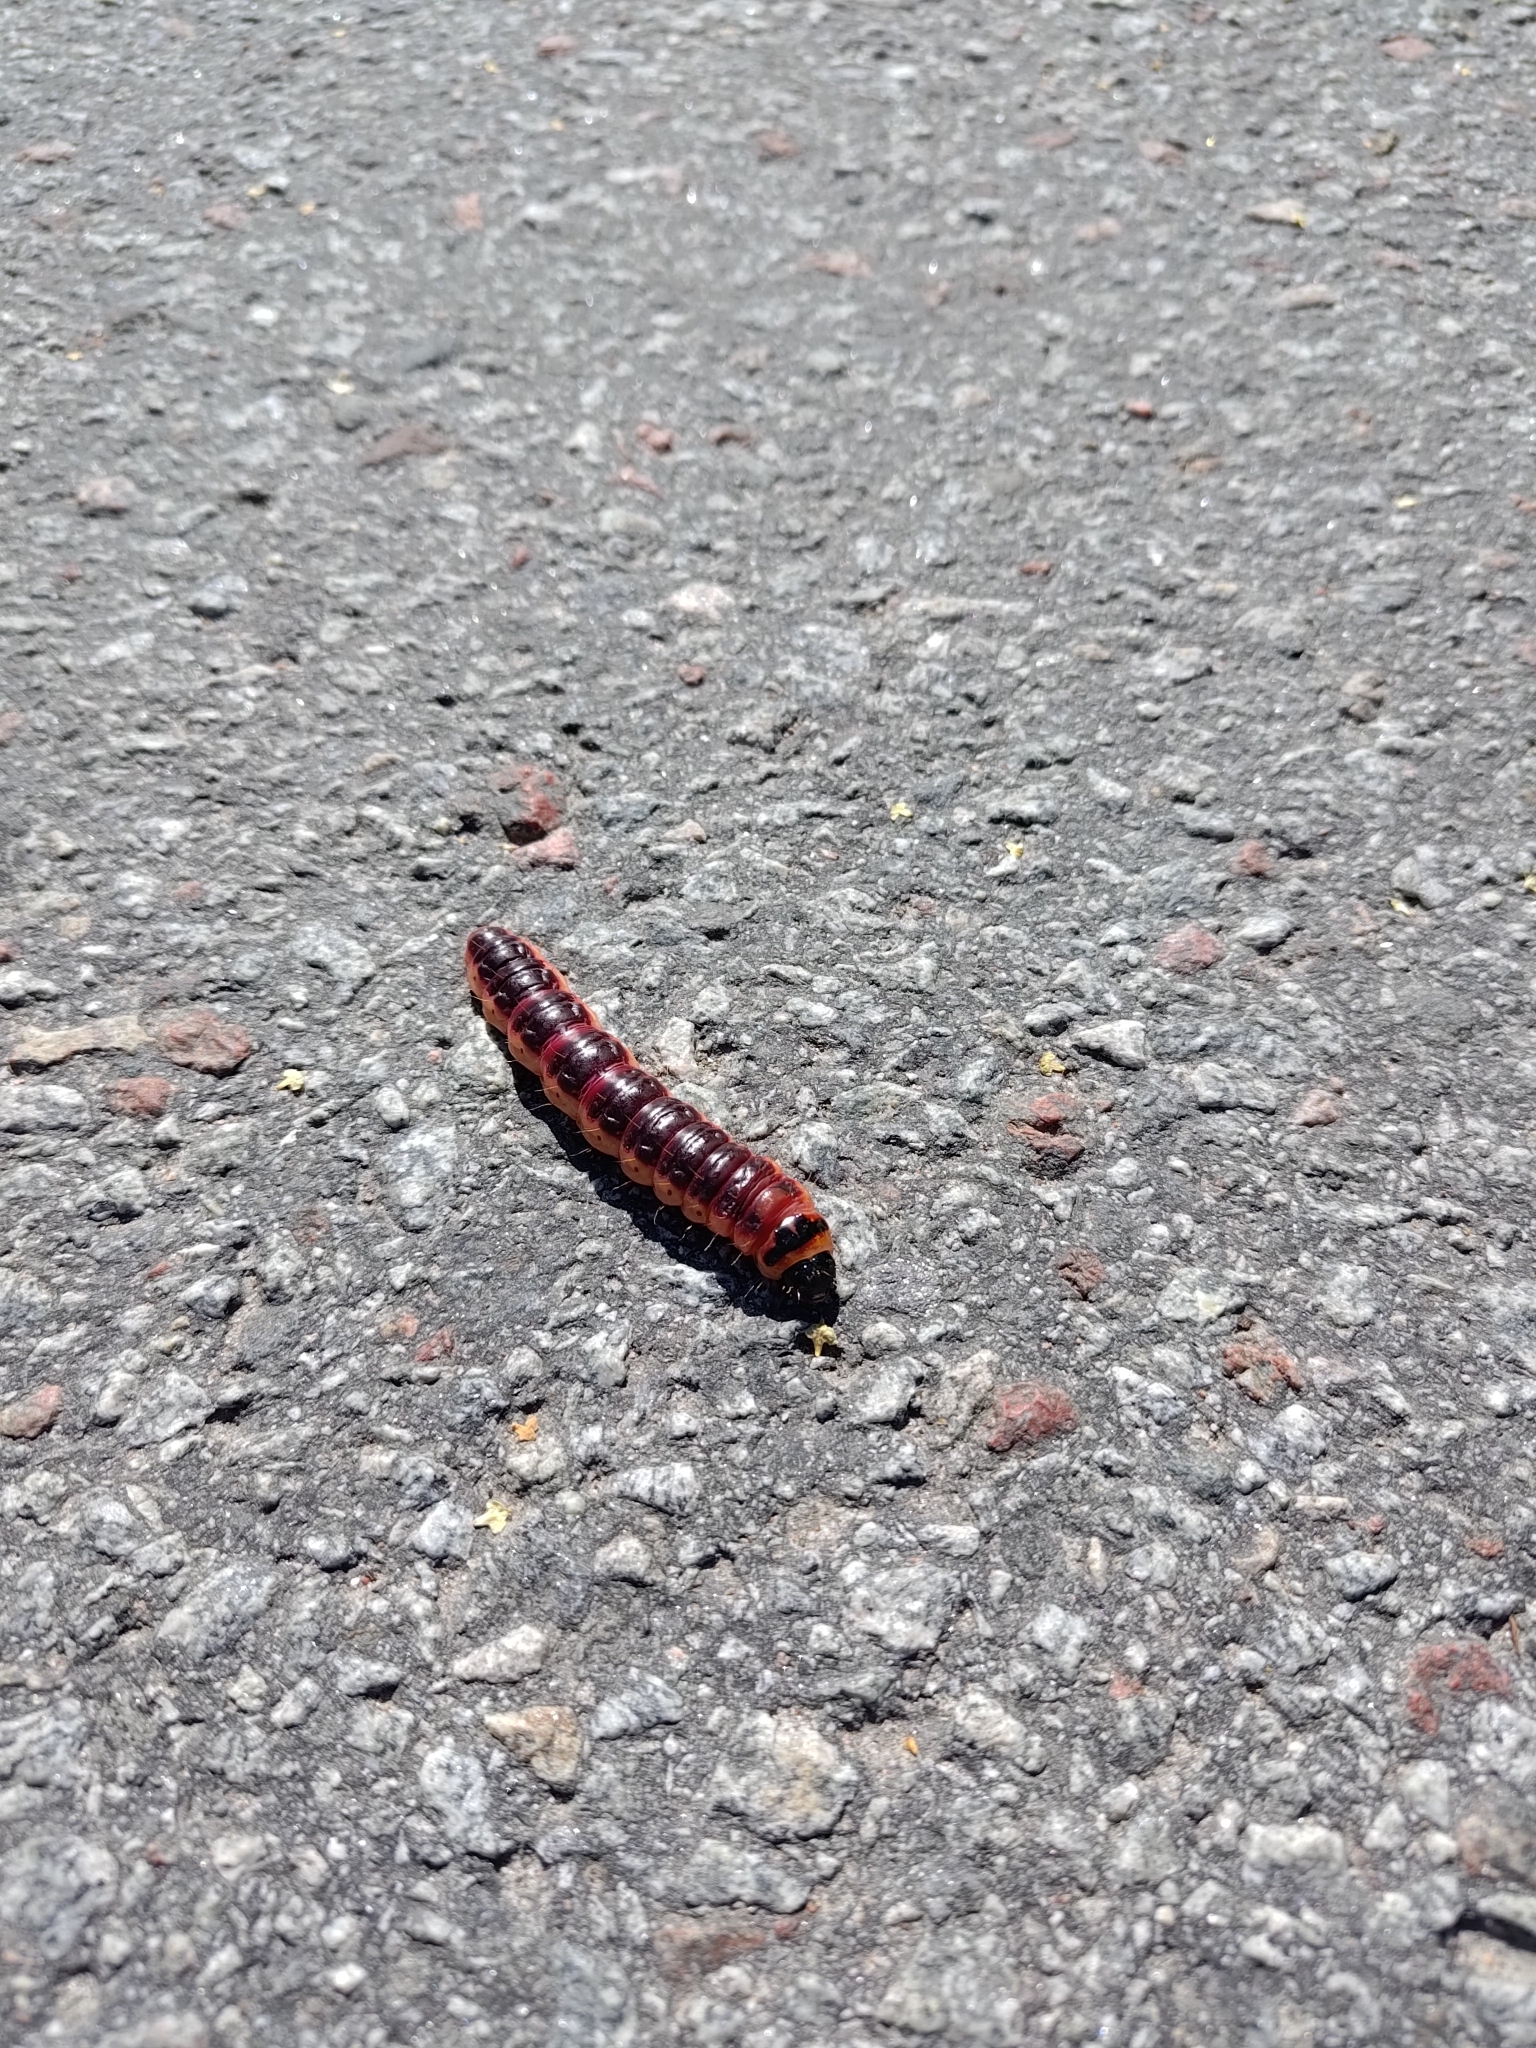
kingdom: Animalia
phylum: Arthropoda
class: Insecta
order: Lepidoptera
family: Cossidae
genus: Cossus
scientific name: Cossus cossus
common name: Goat moth
